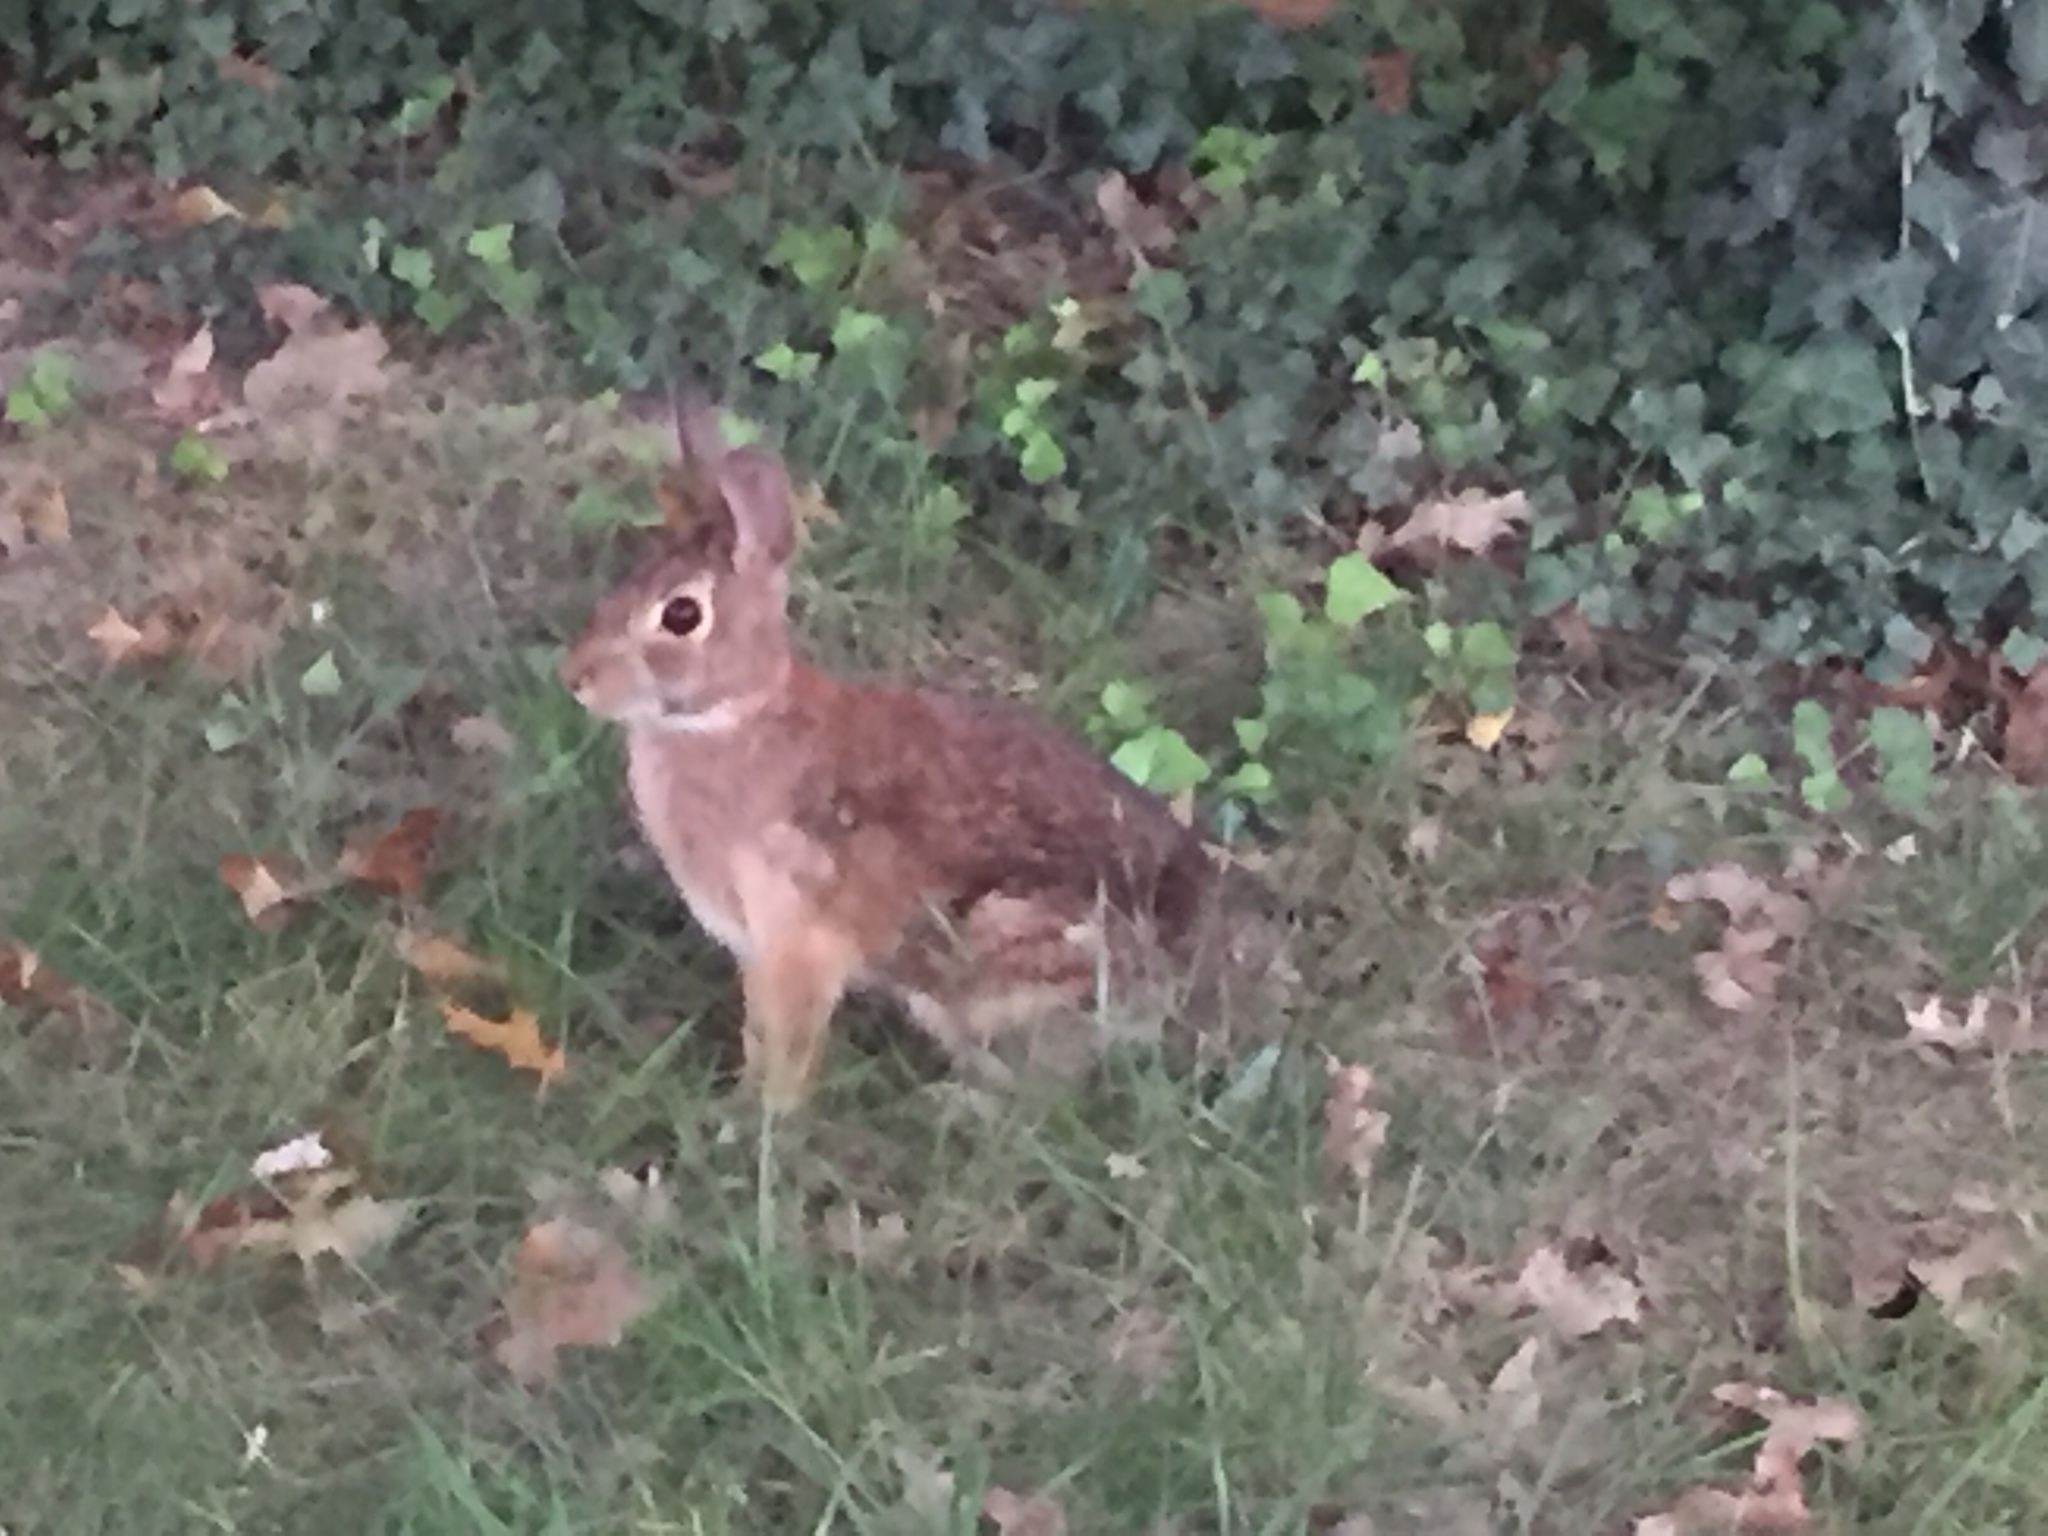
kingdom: Animalia
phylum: Chordata
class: Mammalia
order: Lagomorpha
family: Leporidae
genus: Sylvilagus
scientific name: Sylvilagus floridanus
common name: Eastern cottontail
